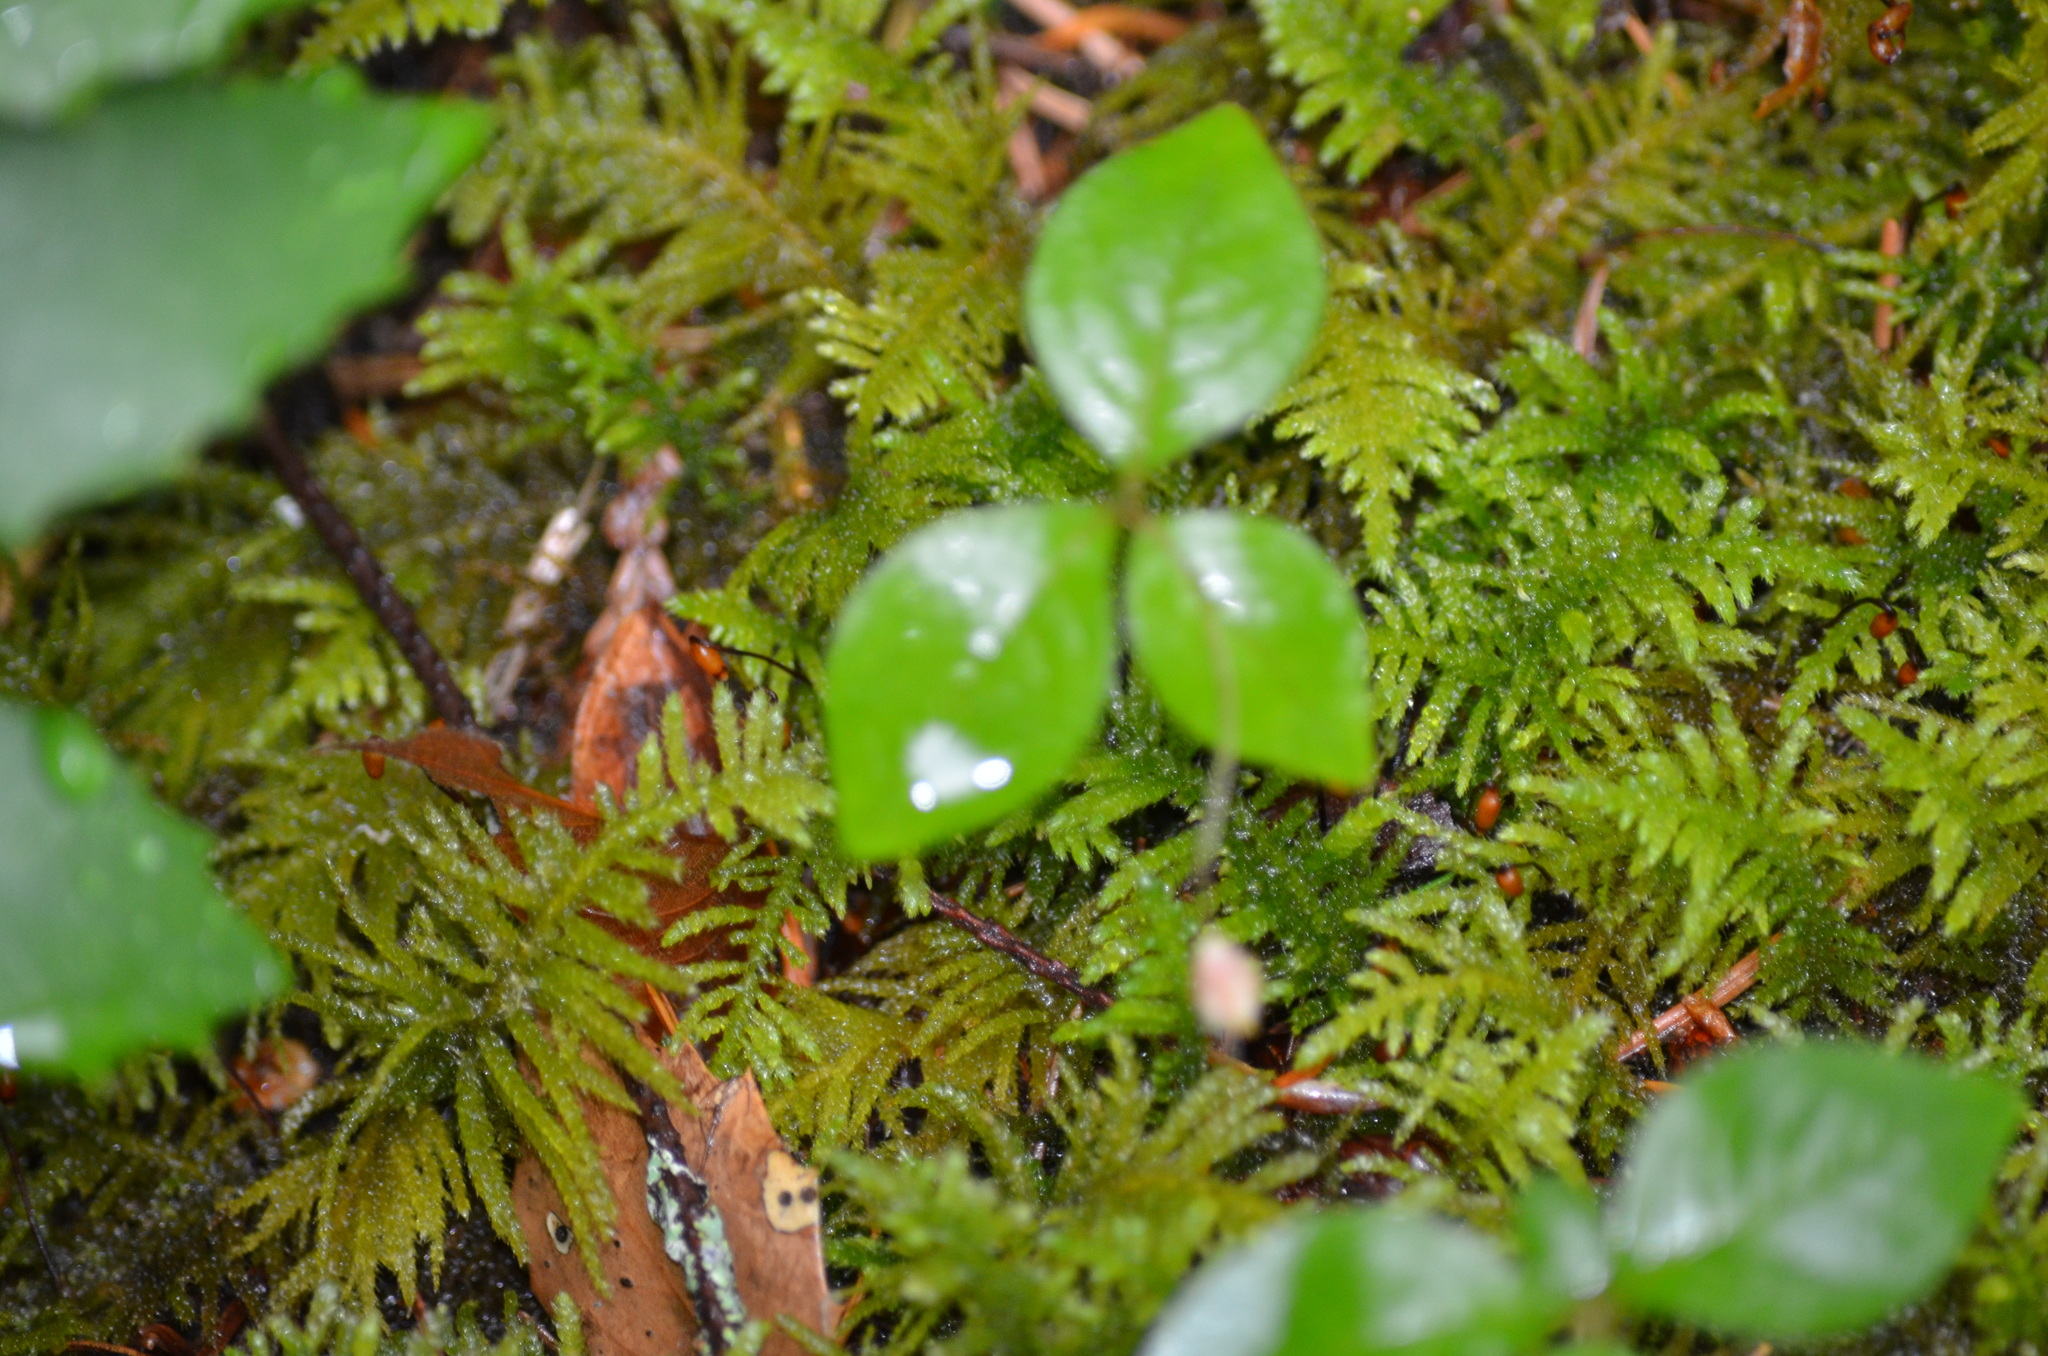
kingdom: Plantae
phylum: Bryophyta
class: Bryopsida
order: Hypnales
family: Brachytheciaceae
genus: Kindbergia
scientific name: Kindbergia oregana
